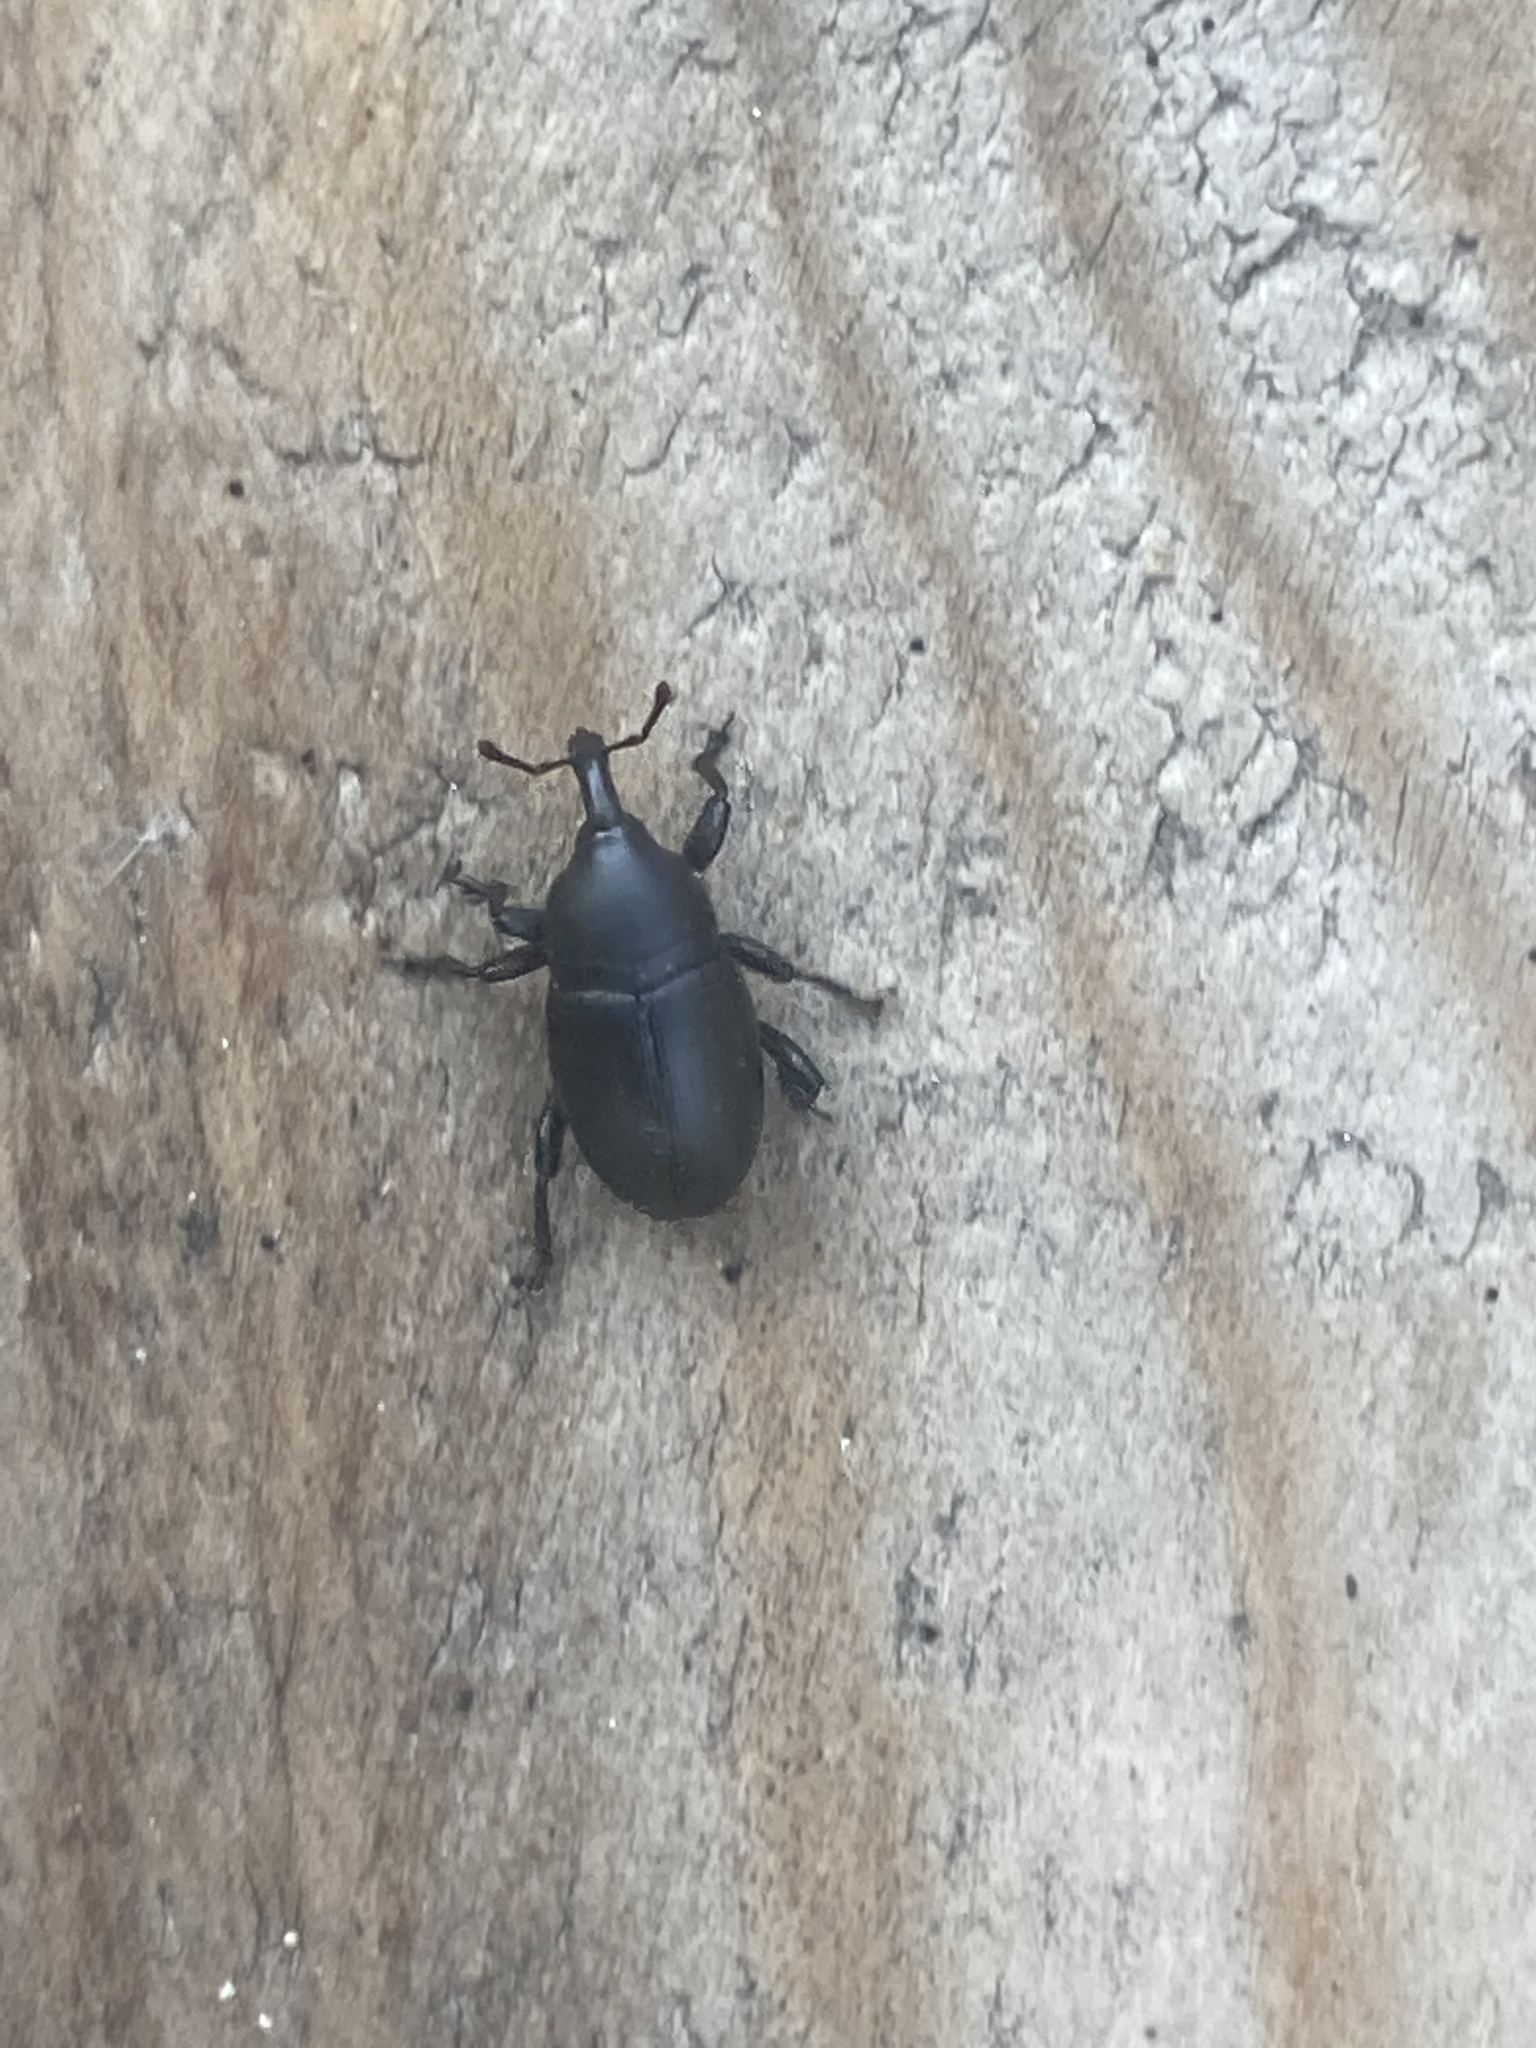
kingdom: Animalia
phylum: Arthropoda
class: Insecta
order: Coleoptera
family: Curculionidae
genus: Malvaevora
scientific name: Malvaevora timida
